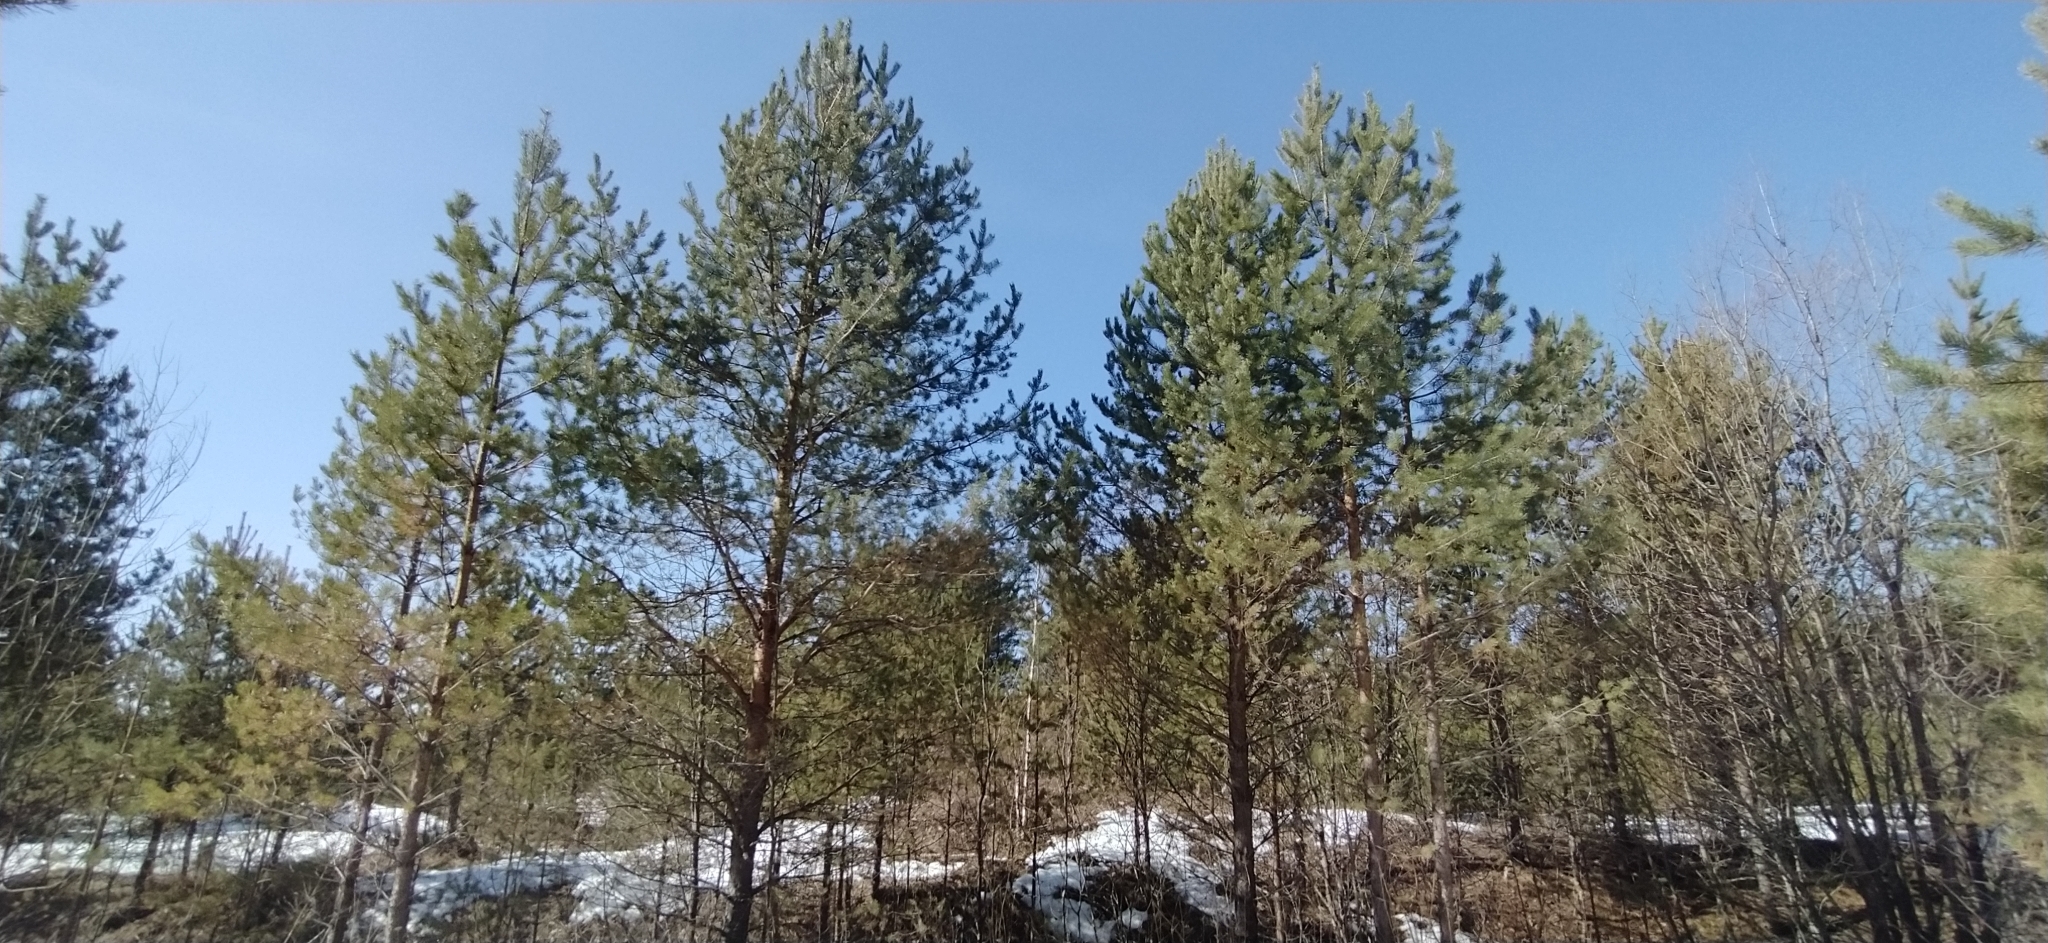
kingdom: Plantae
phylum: Tracheophyta
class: Pinopsida
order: Pinales
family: Pinaceae
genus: Pinus
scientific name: Pinus sylvestris
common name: Scots pine
